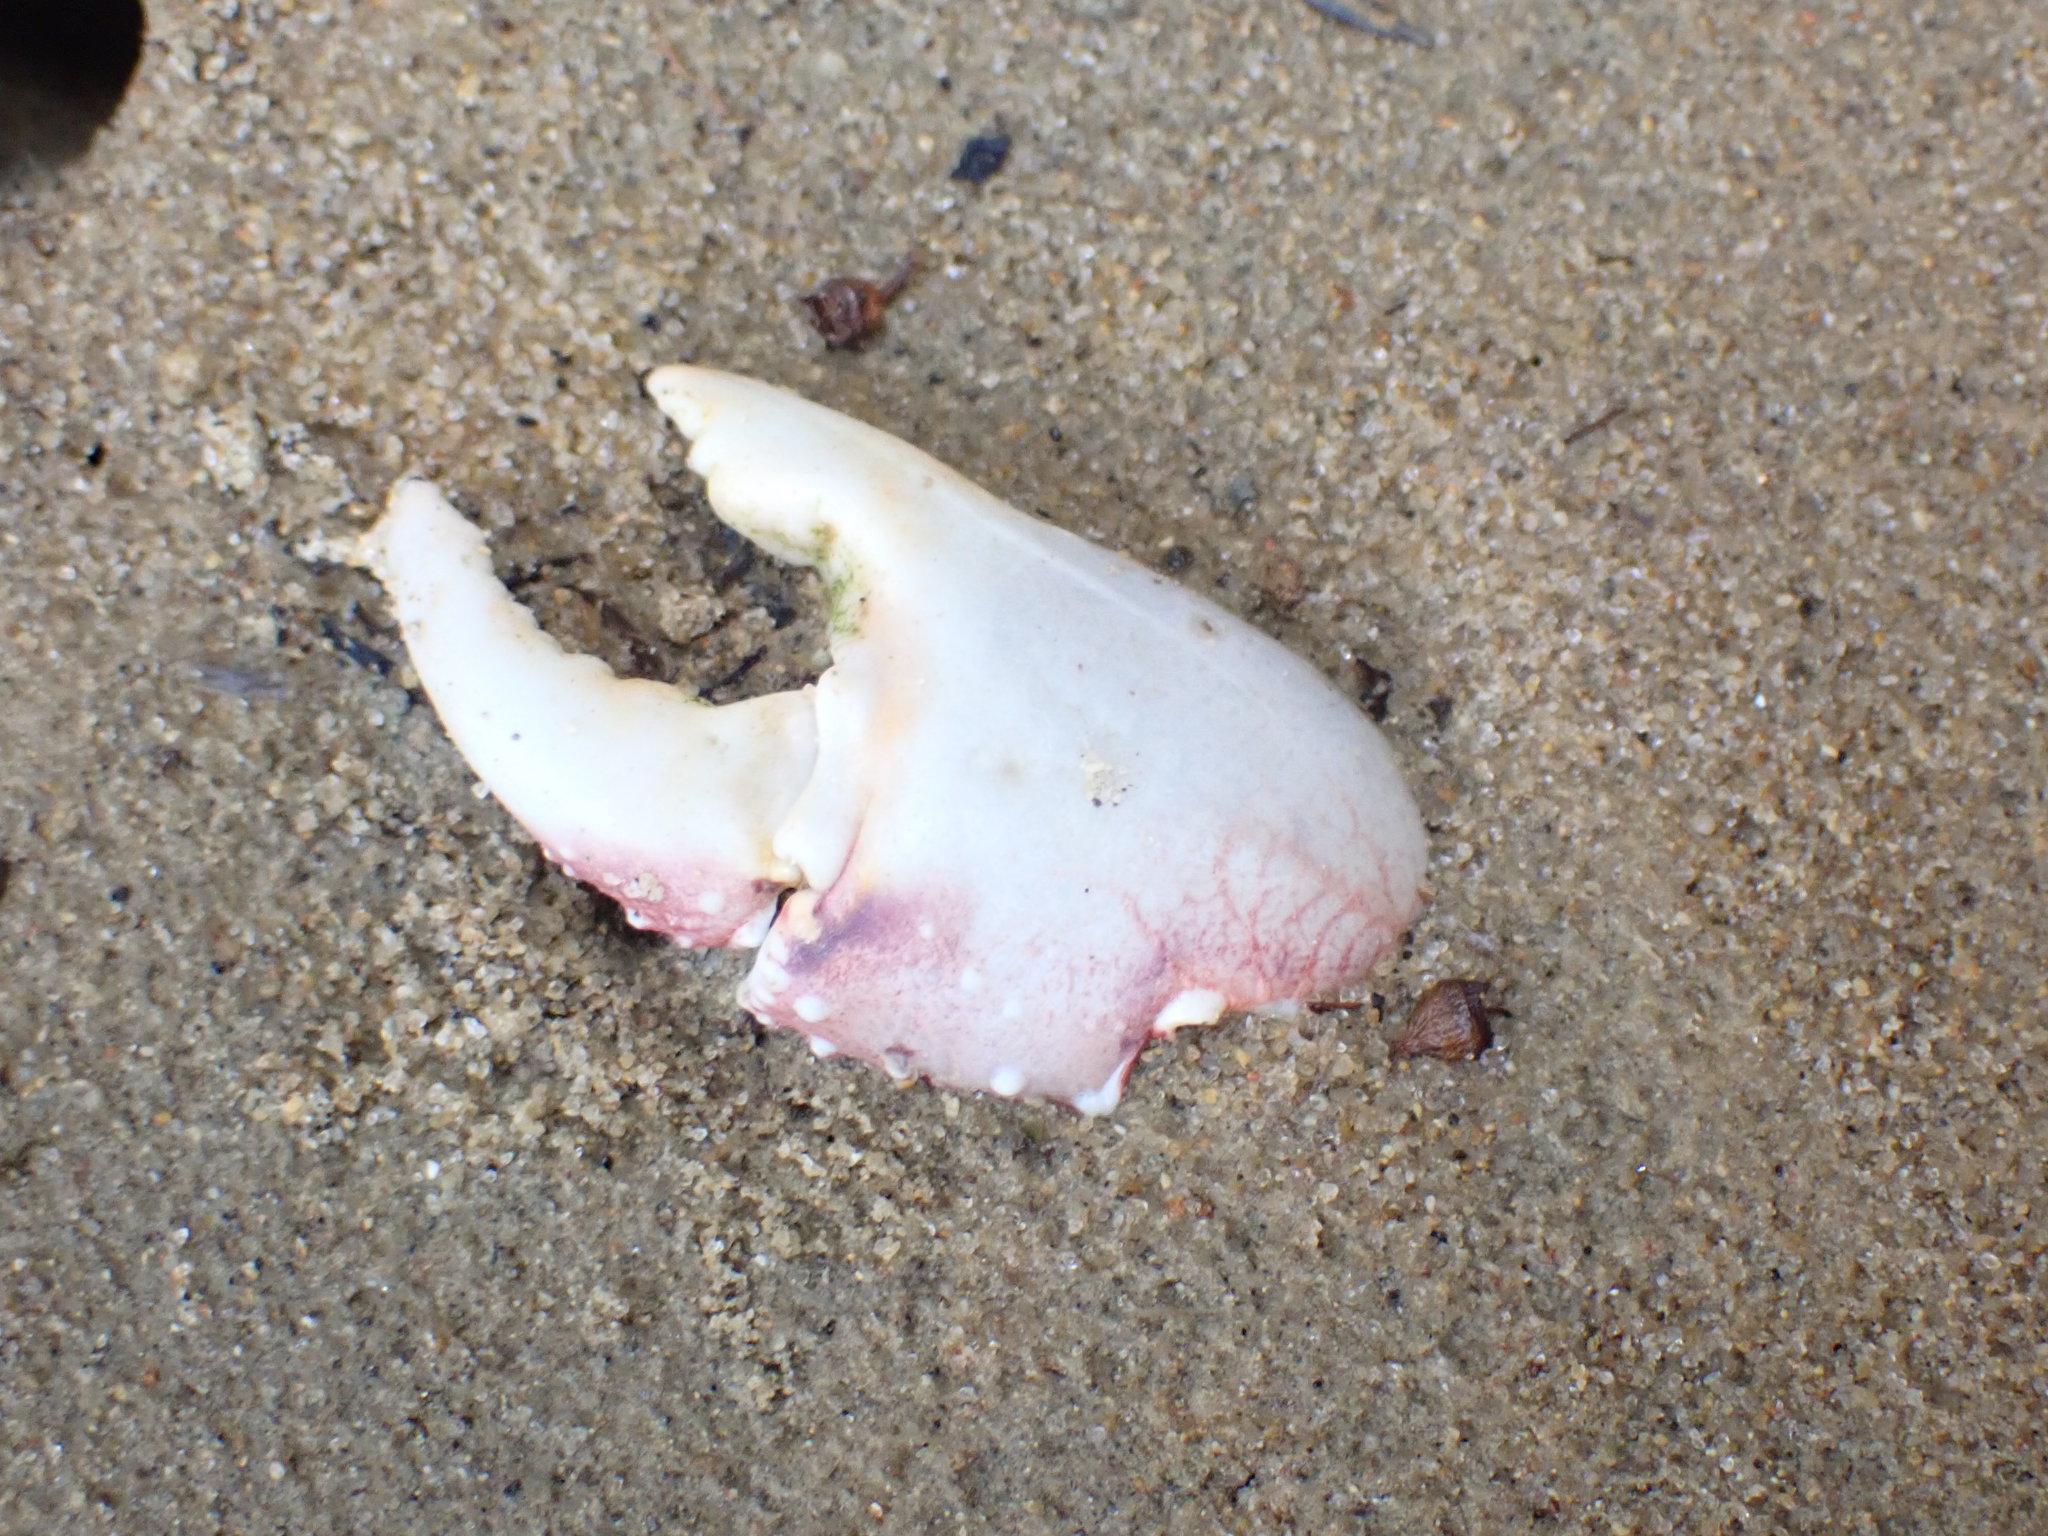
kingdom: Animalia
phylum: Arthropoda
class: Malacostraca
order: Decapoda
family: Grapsidae
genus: Leptograpsus
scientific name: Leptograpsus variegatus
